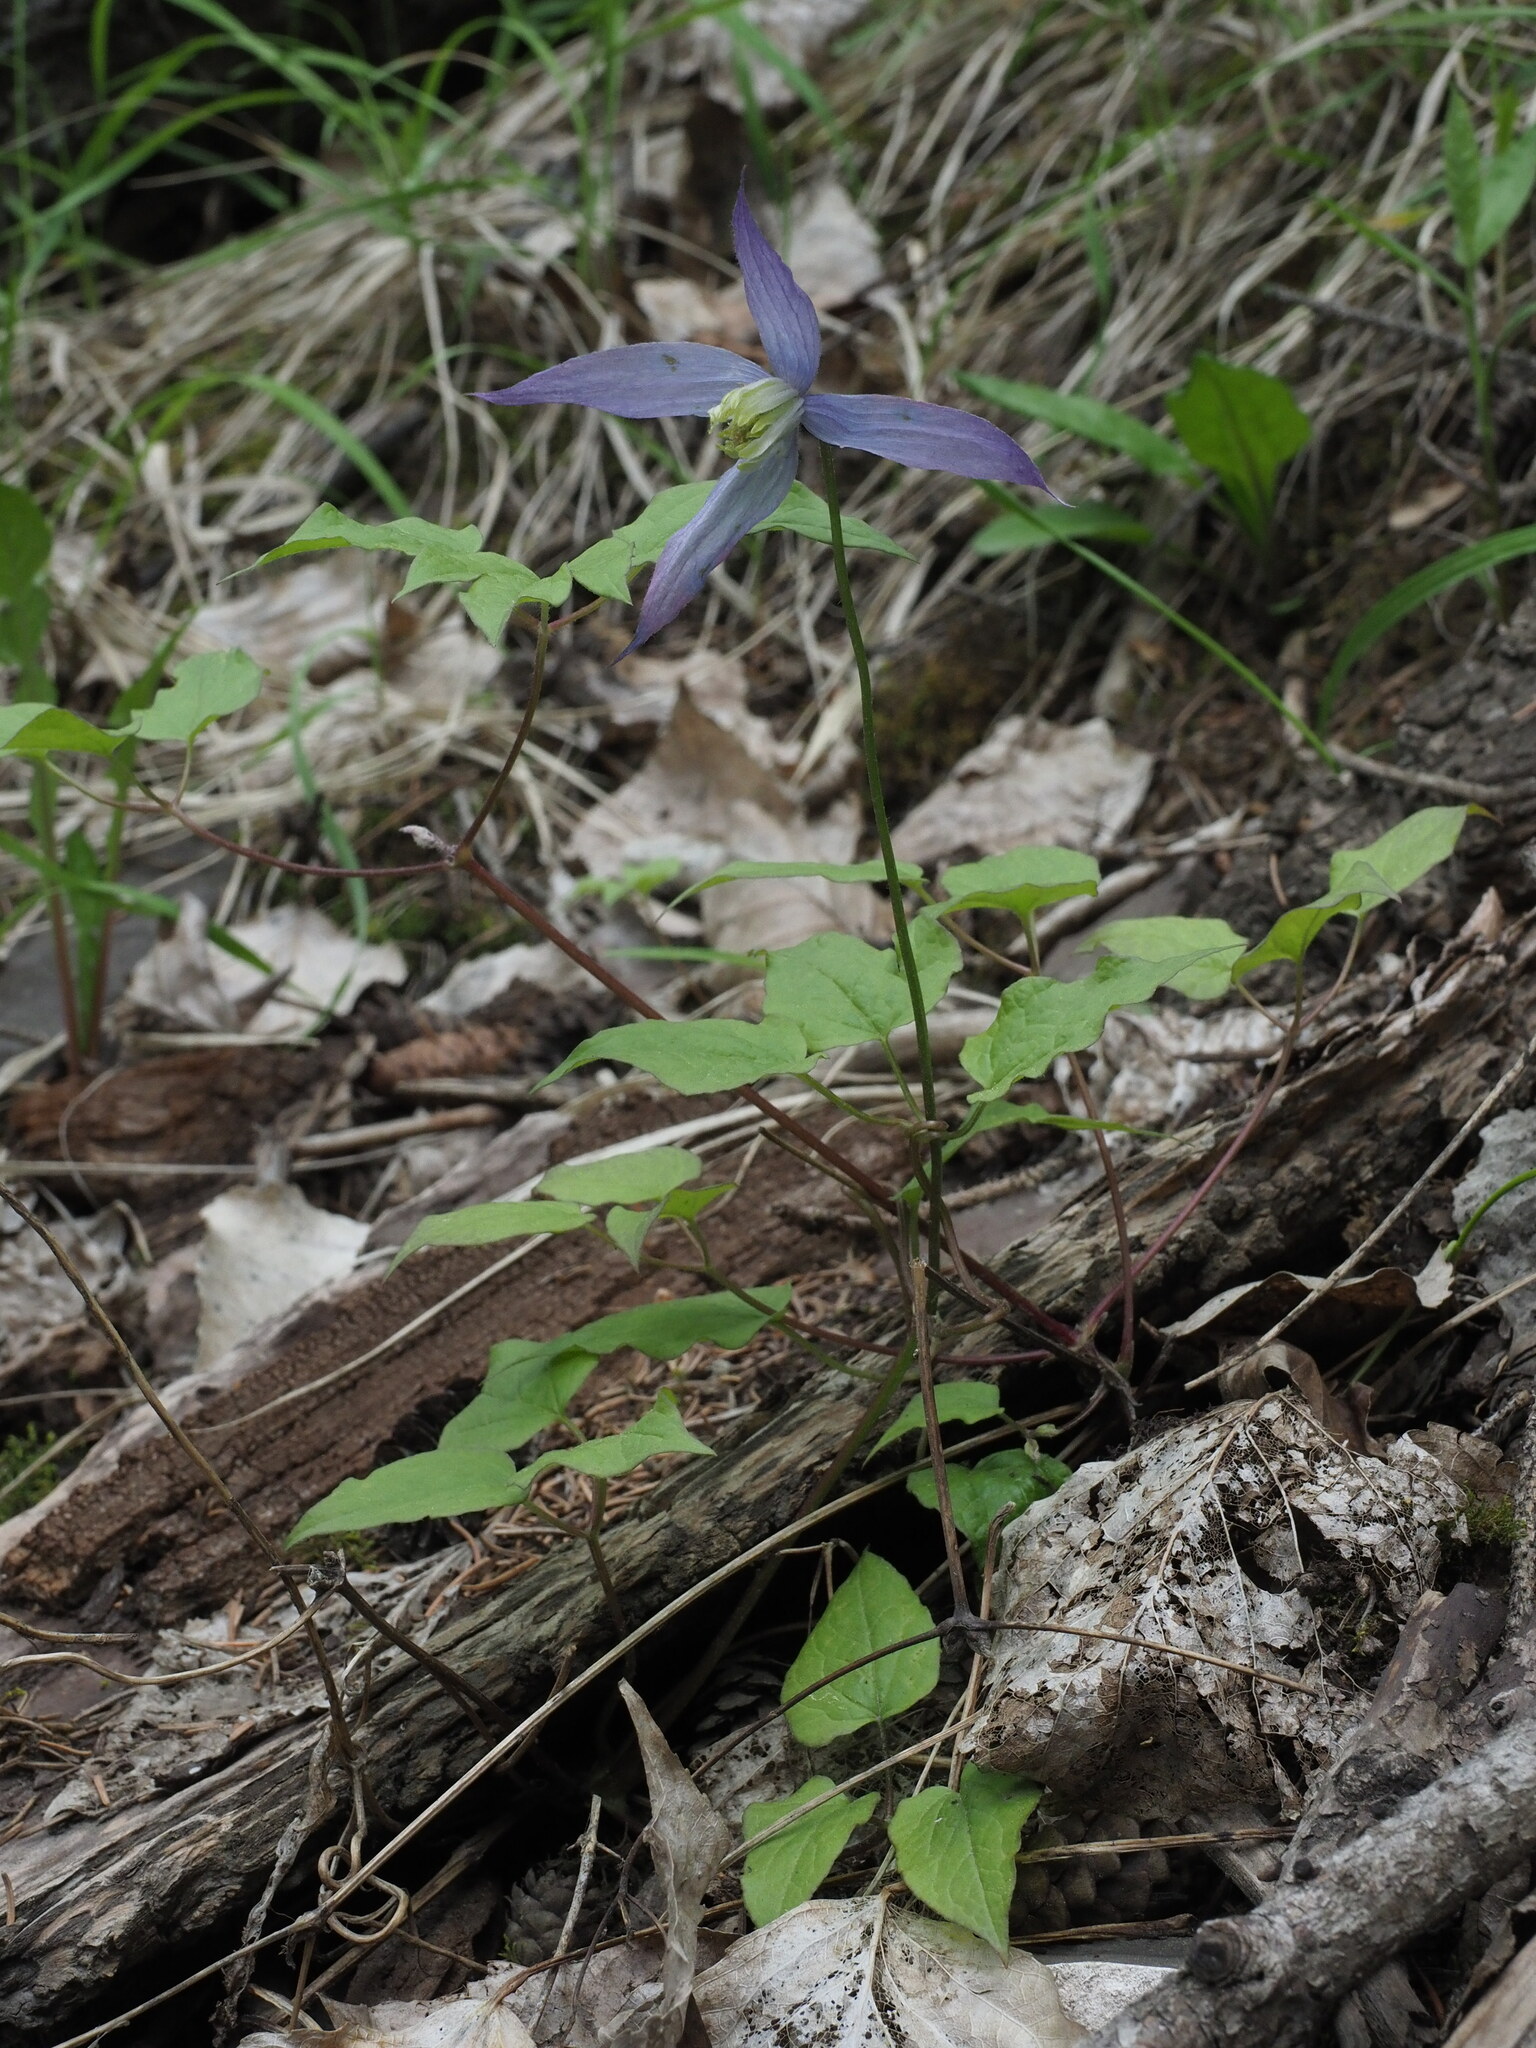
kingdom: Plantae
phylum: Tracheophyta
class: Magnoliopsida
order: Ranunculales
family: Ranunculaceae
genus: Clematis
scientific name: Clematis occidentalis
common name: Purple clematis
